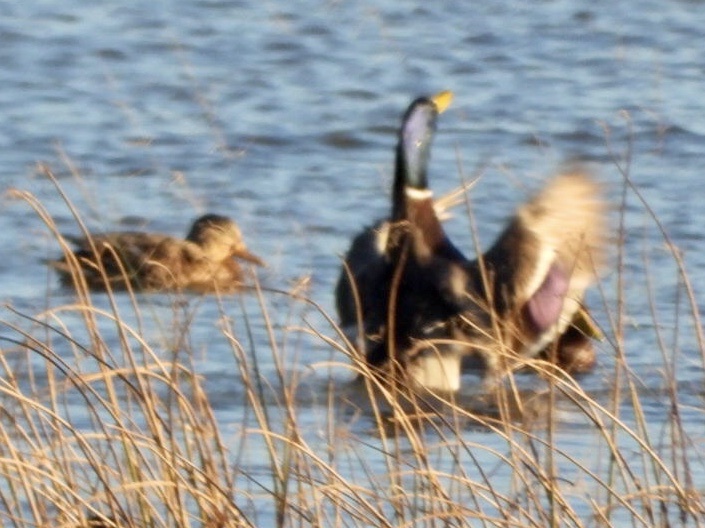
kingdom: Animalia
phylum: Chordata
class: Aves
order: Anseriformes
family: Anatidae
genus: Anas
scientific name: Anas platyrhynchos
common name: Mallard
